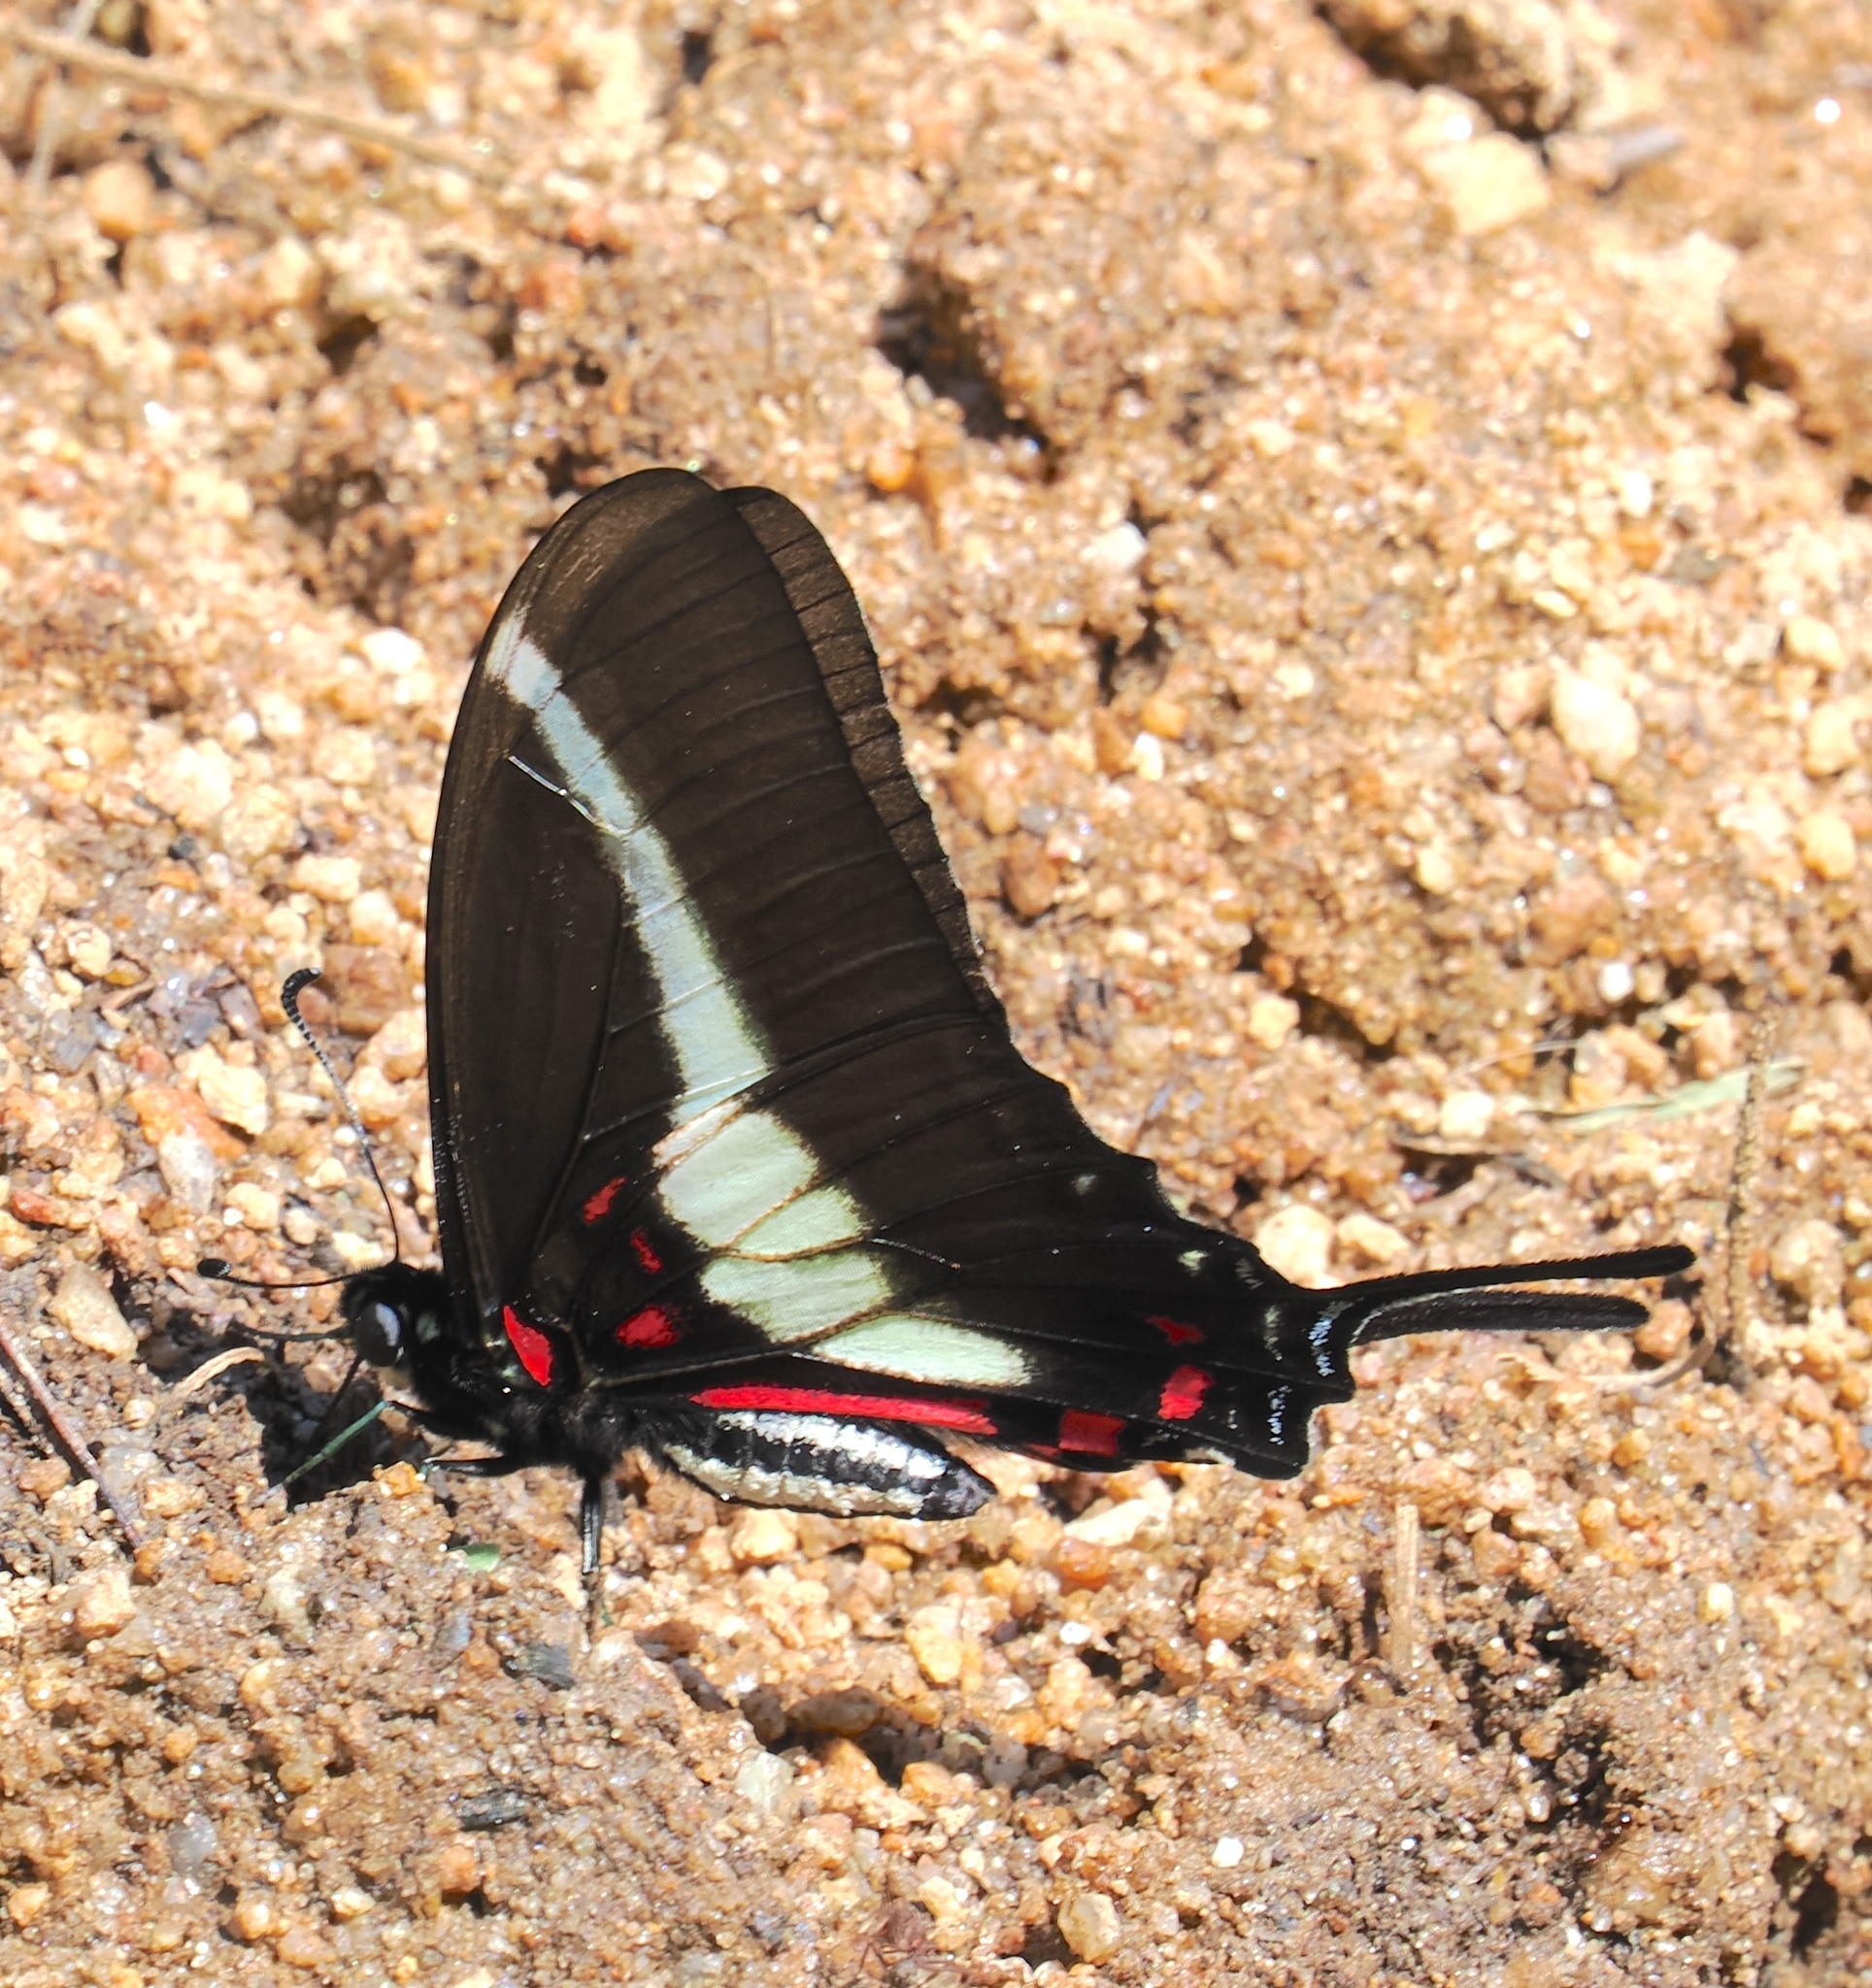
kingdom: Animalia
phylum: Arthropoda
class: Insecta
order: Lepidoptera
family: Papilionidae
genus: Protographium
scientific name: Protographium asius
